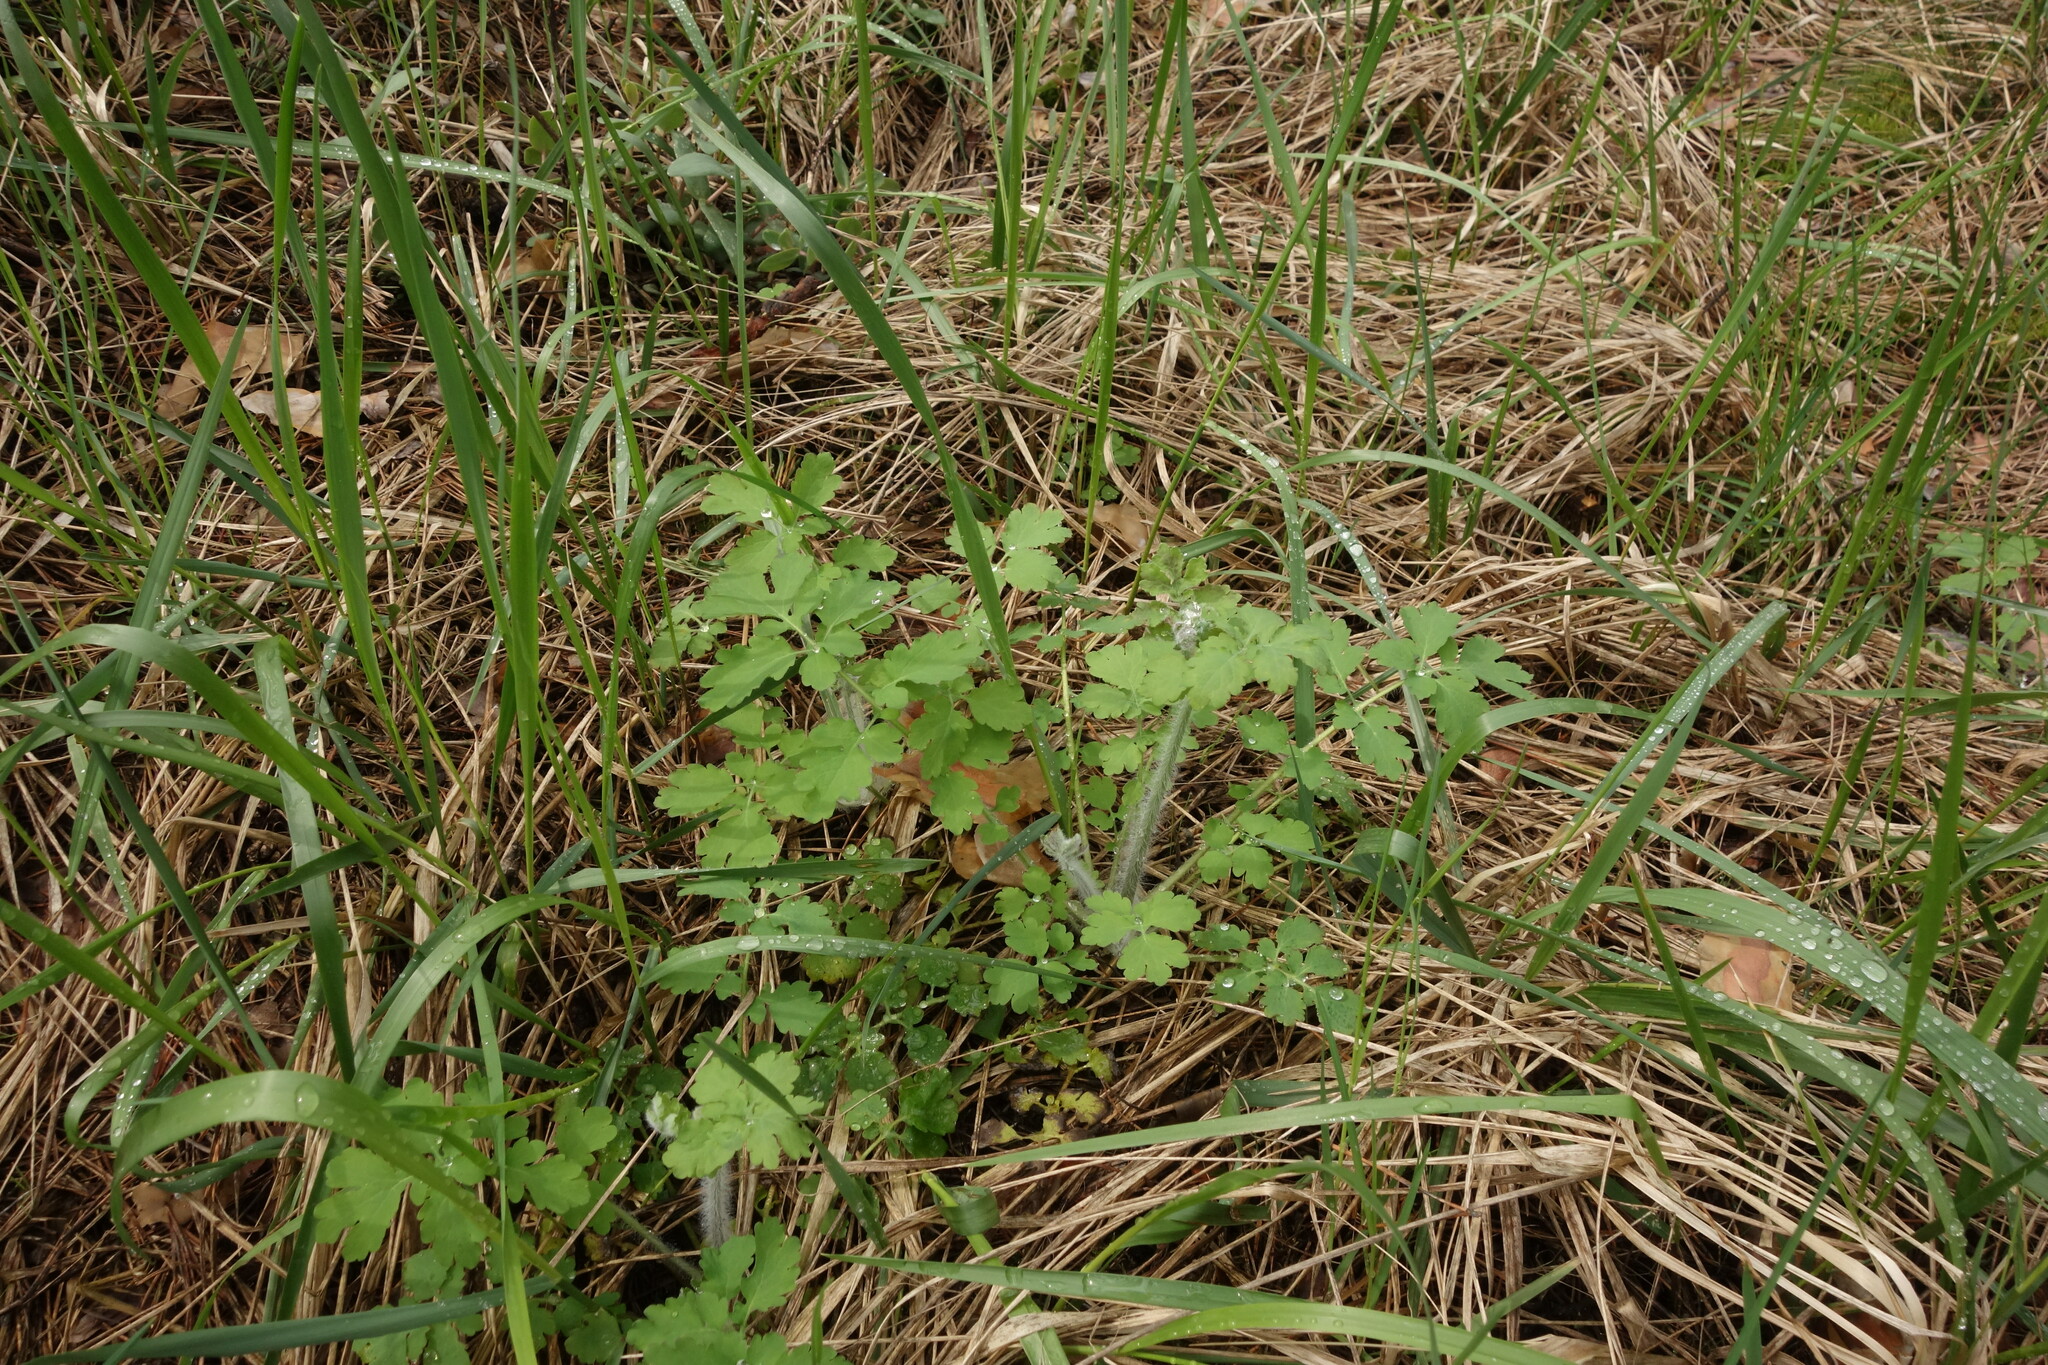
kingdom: Plantae
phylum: Tracheophyta
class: Magnoliopsida
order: Ranunculales
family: Papaveraceae
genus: Chelidonium
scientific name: Chelidonium majus
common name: Greater celandine
